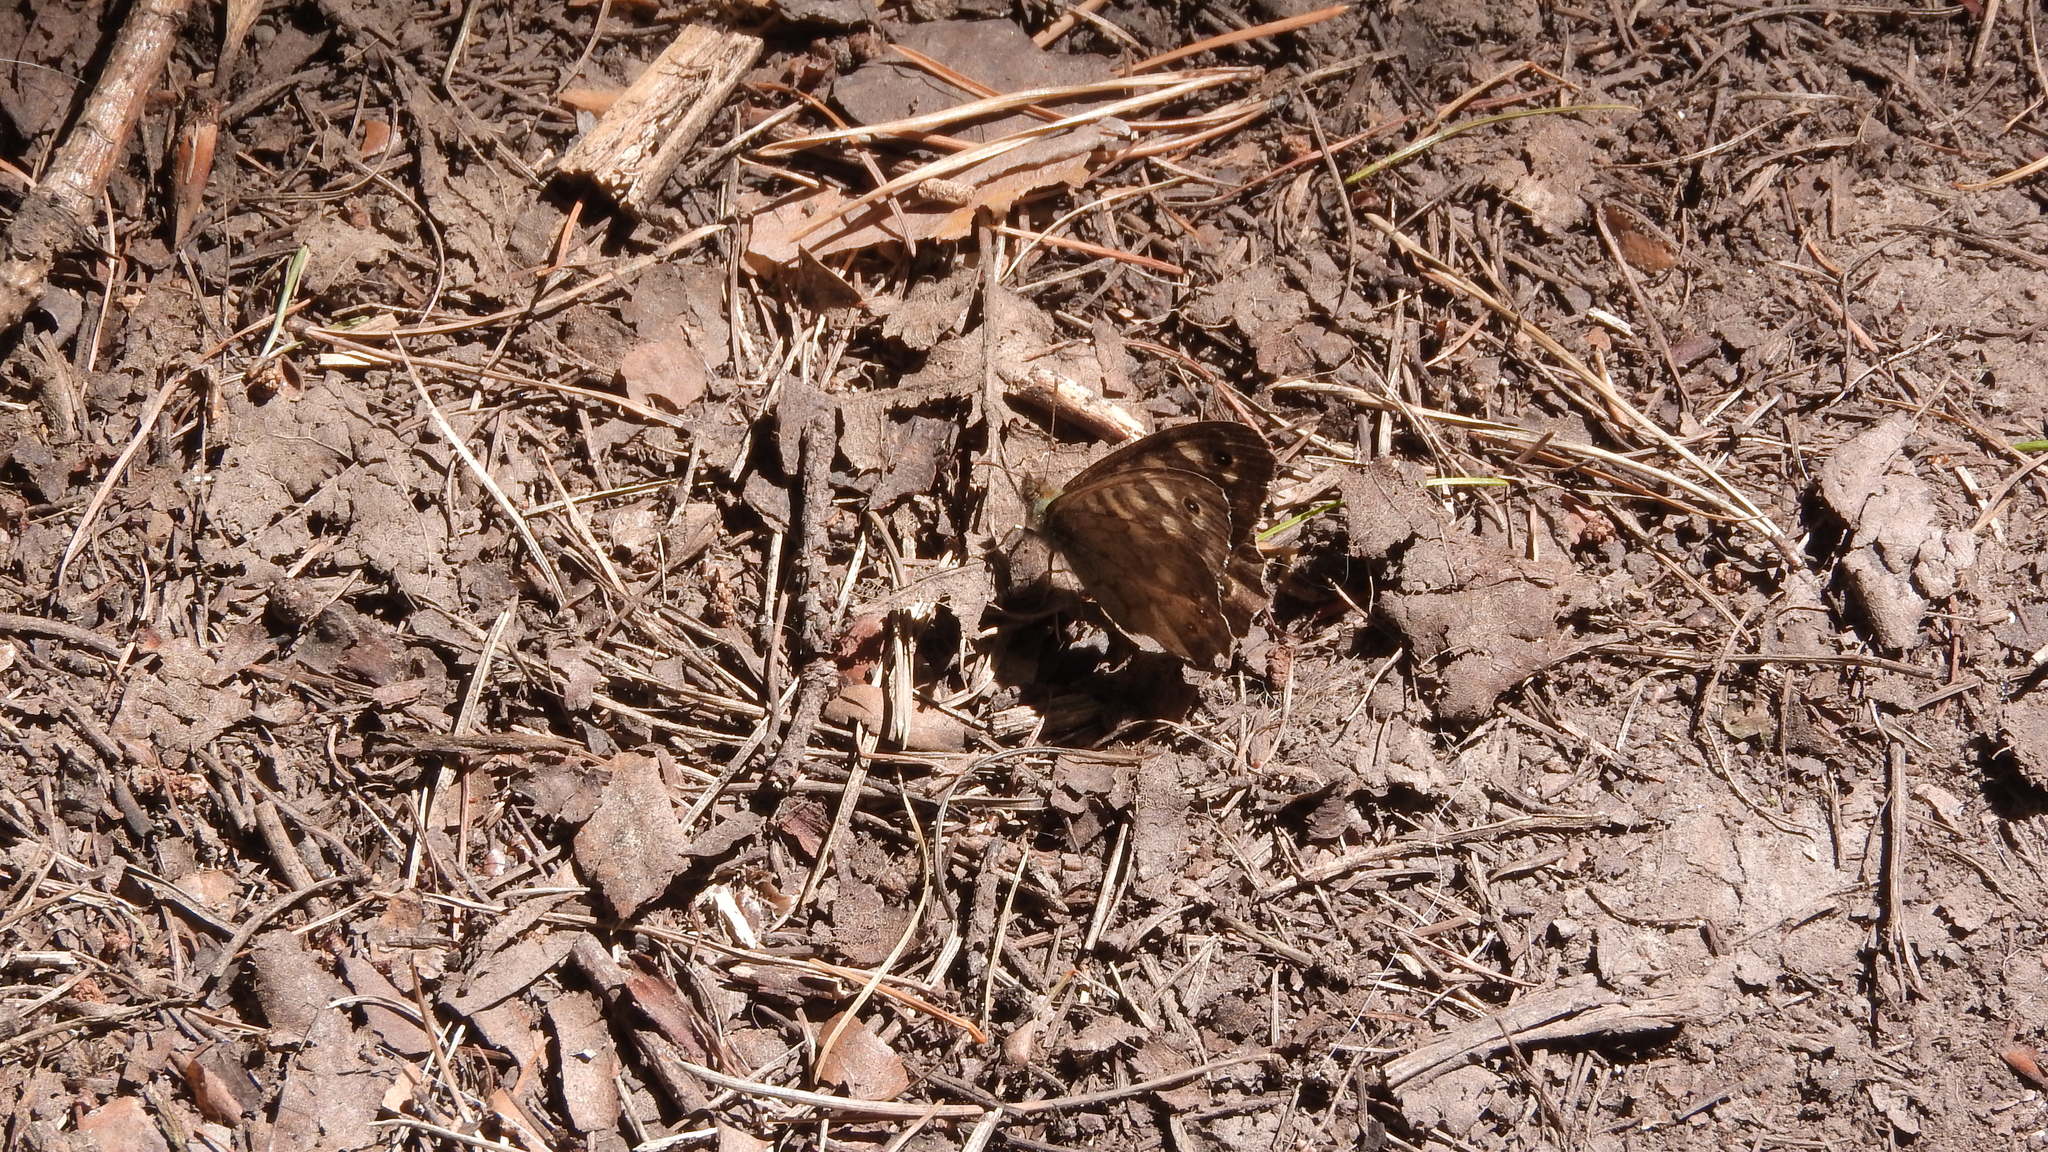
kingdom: Animalia
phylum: Arthropoda
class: Insecta
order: Lepidoptera
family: Nymphalidae
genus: Pararge
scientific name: Pararge aegeria
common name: Speckled wood
